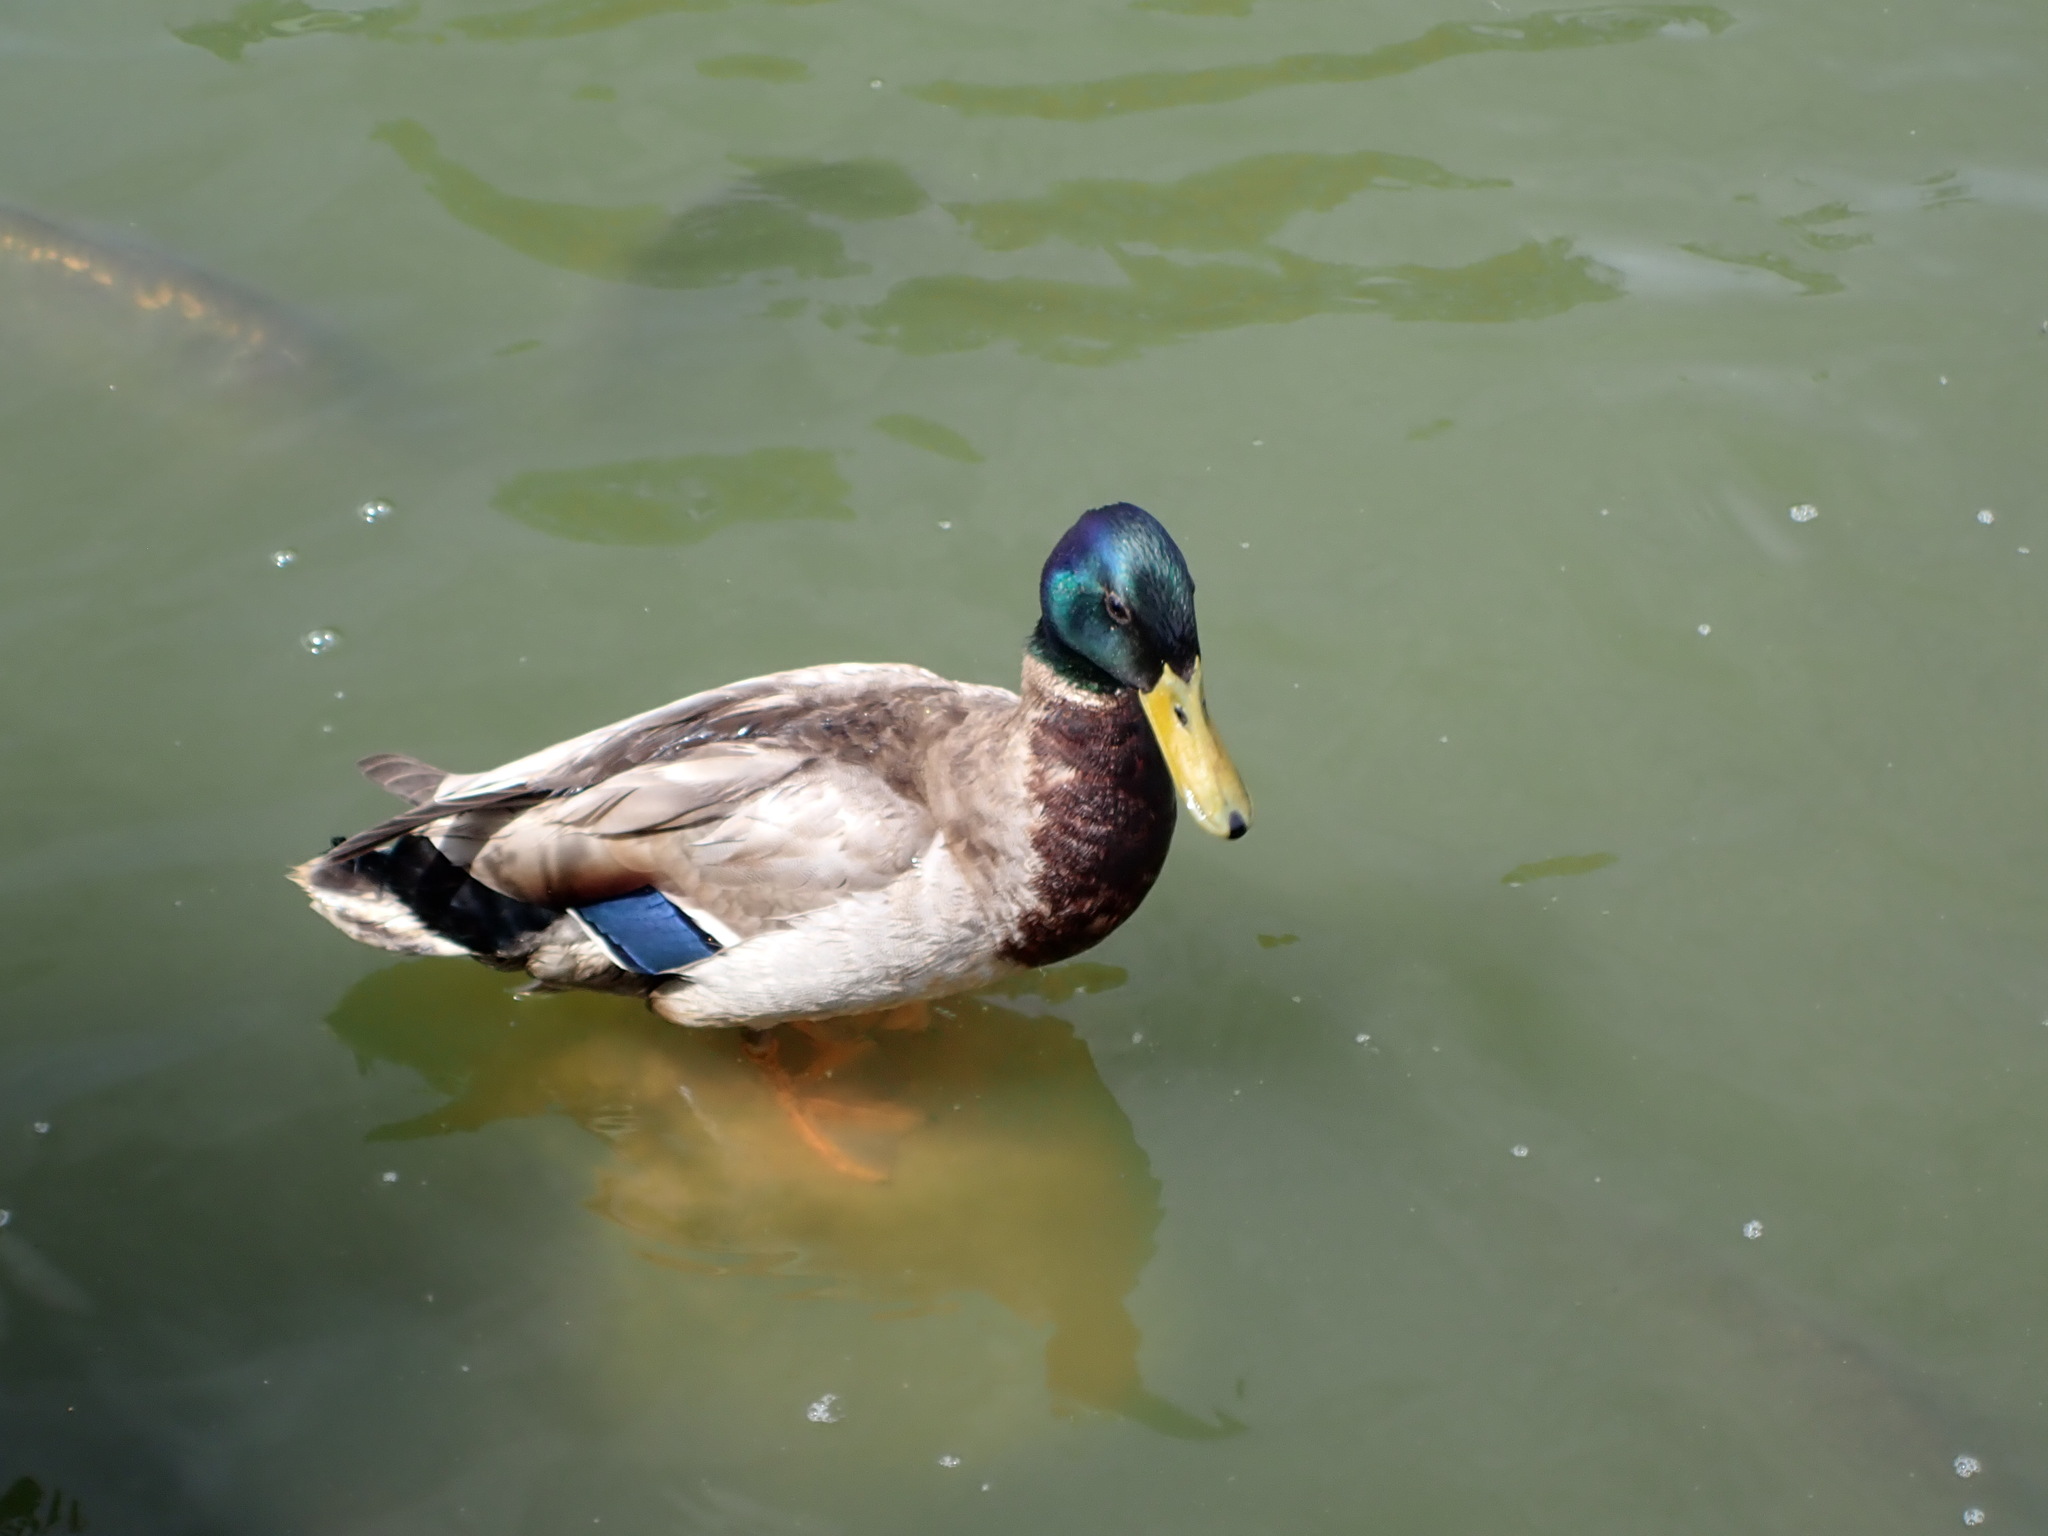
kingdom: Animalia
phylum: Chordata
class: Aves
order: Anseriformes
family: Anatidae
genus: Anas
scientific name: Anas platyrhynchos
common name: Mallard
